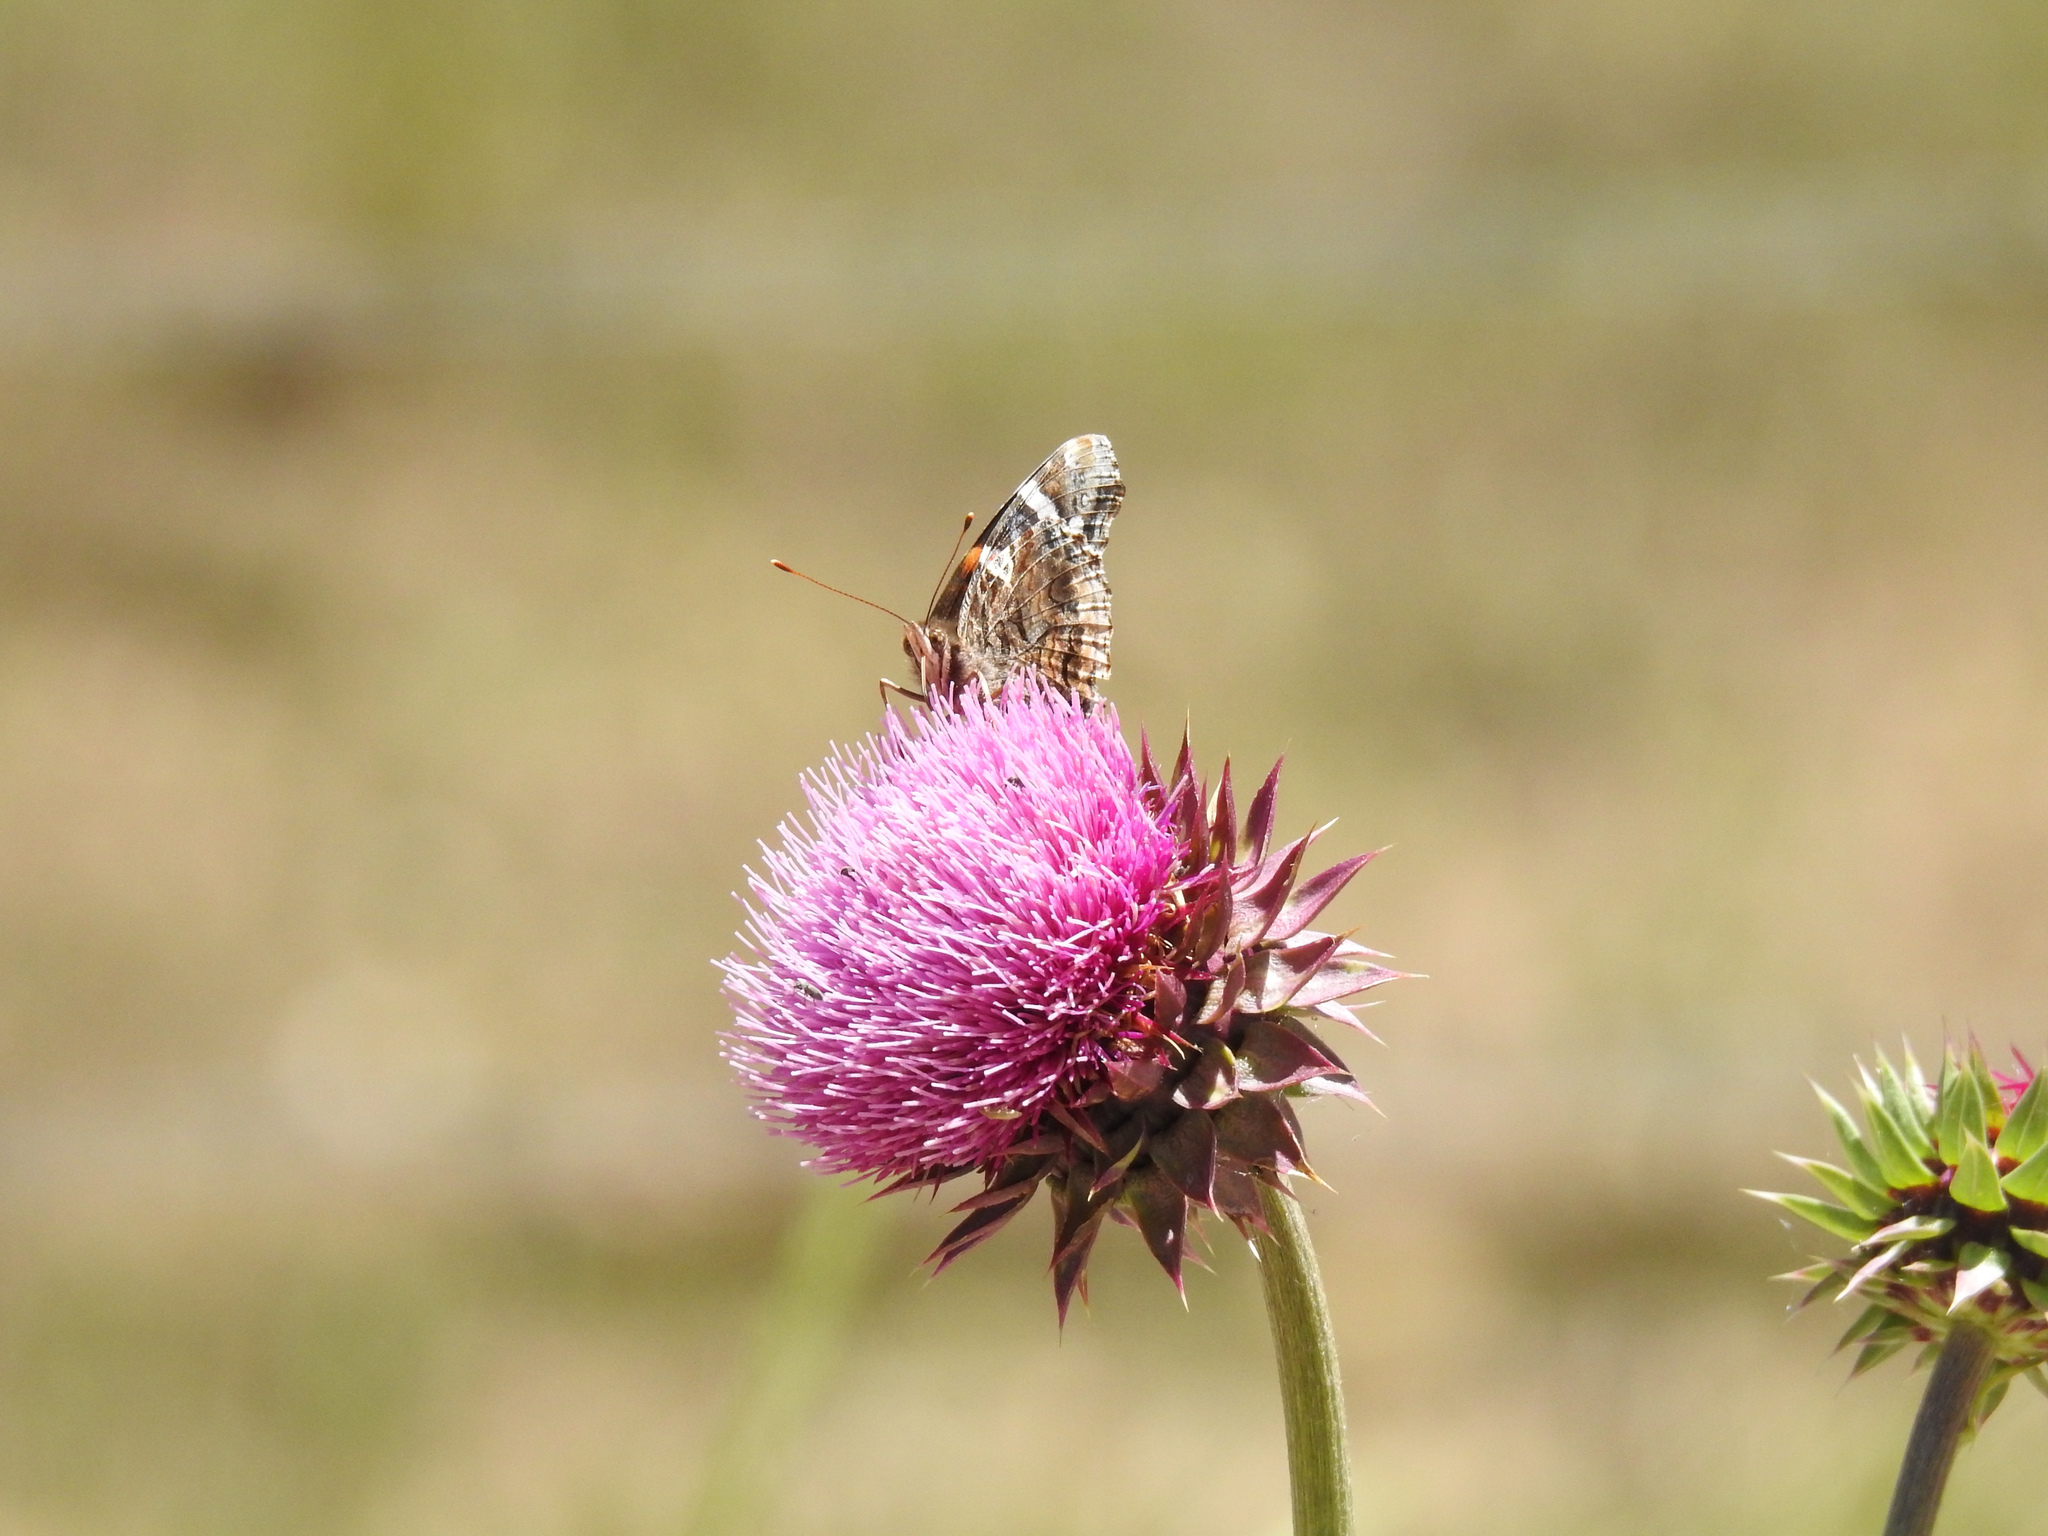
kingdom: Animalia
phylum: Arthropoda
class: Insecta
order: Lepidoptera
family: Nymphalidae
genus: Vanessa
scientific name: Vanessa atalanta
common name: Red admiral
